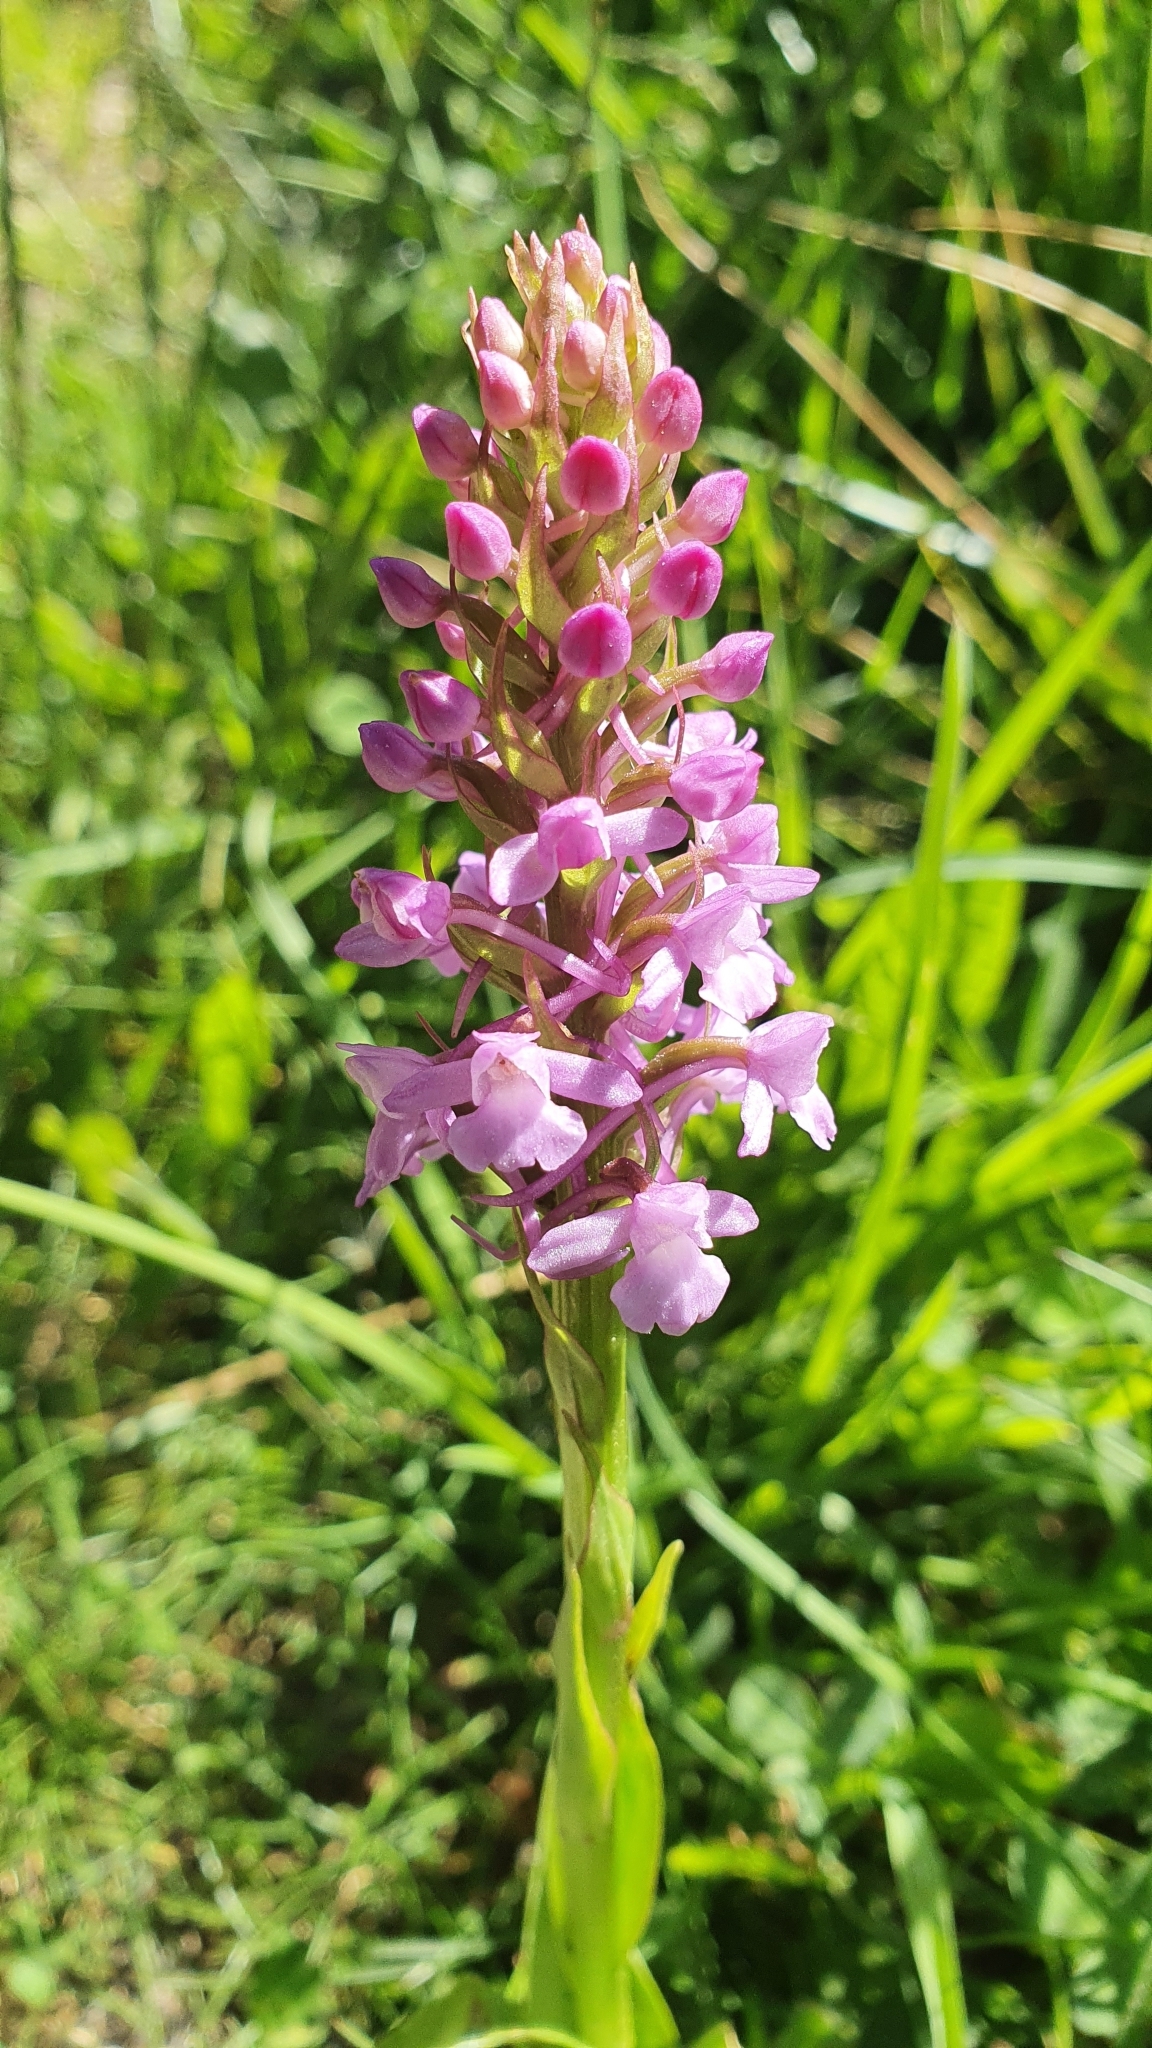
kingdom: Plantae
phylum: Tracheophyta
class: Liliopsida
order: Asparagales
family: Orchidaceae
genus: Gymnadenia
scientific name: Gymnadenia conopsea
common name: Fragrant orchid
